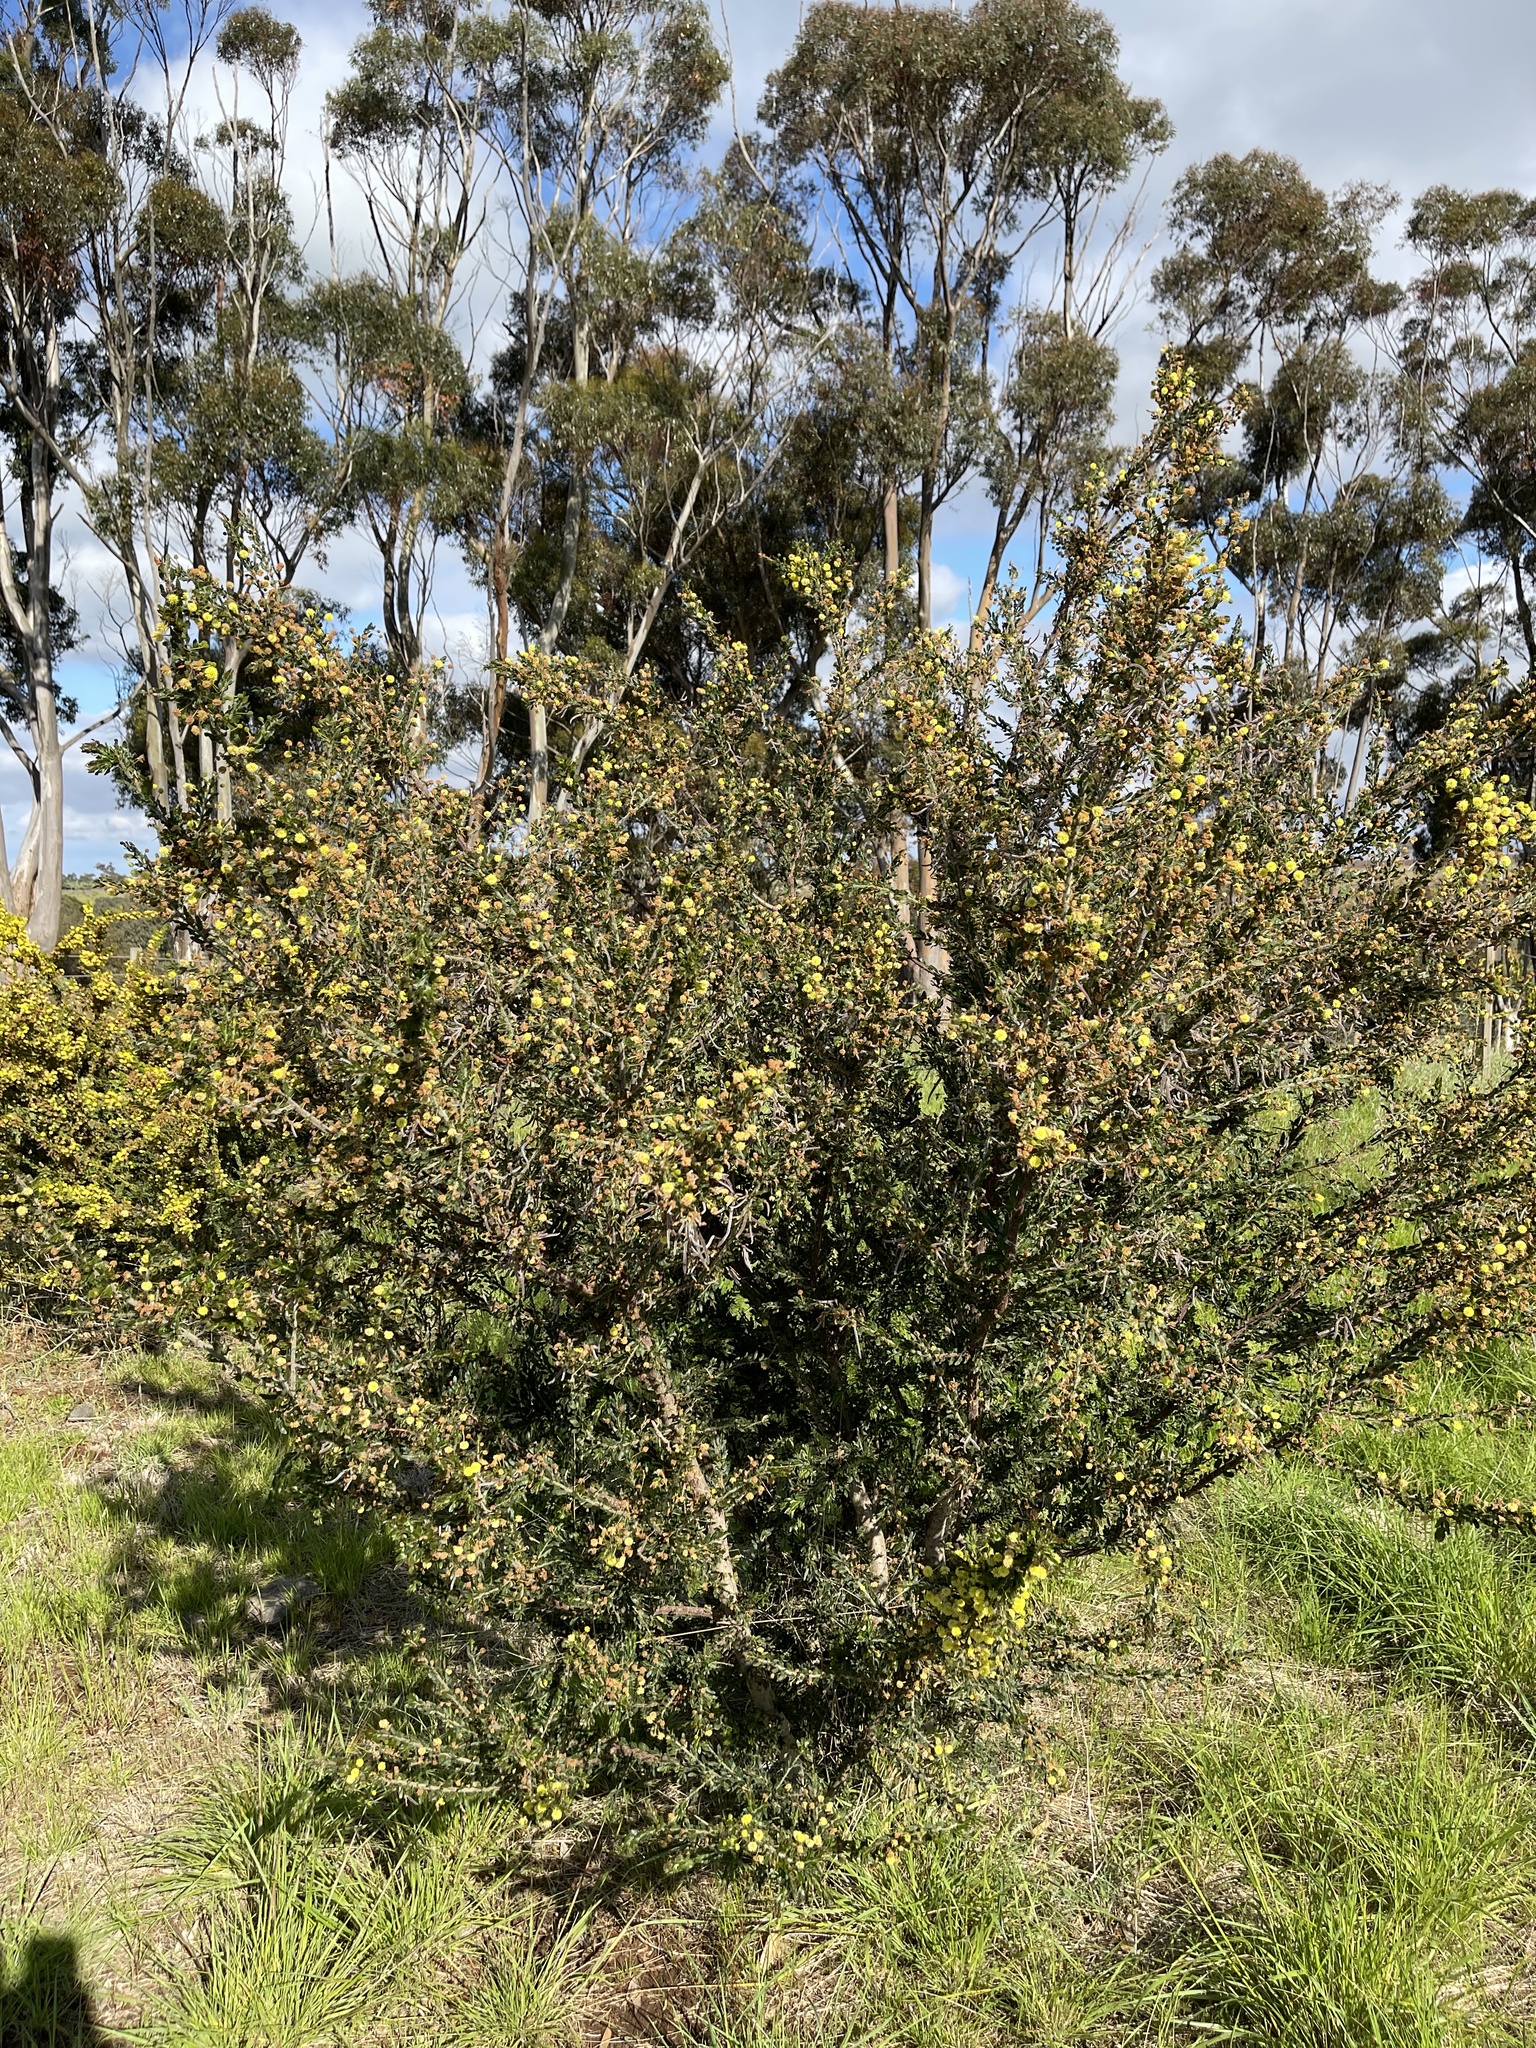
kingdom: Plantae
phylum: Tracheophyta
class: Magnoliopsida
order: Fabales
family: Fabaceae
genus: Acacia
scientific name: Acacia paradoxa
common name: Paradox acacia
